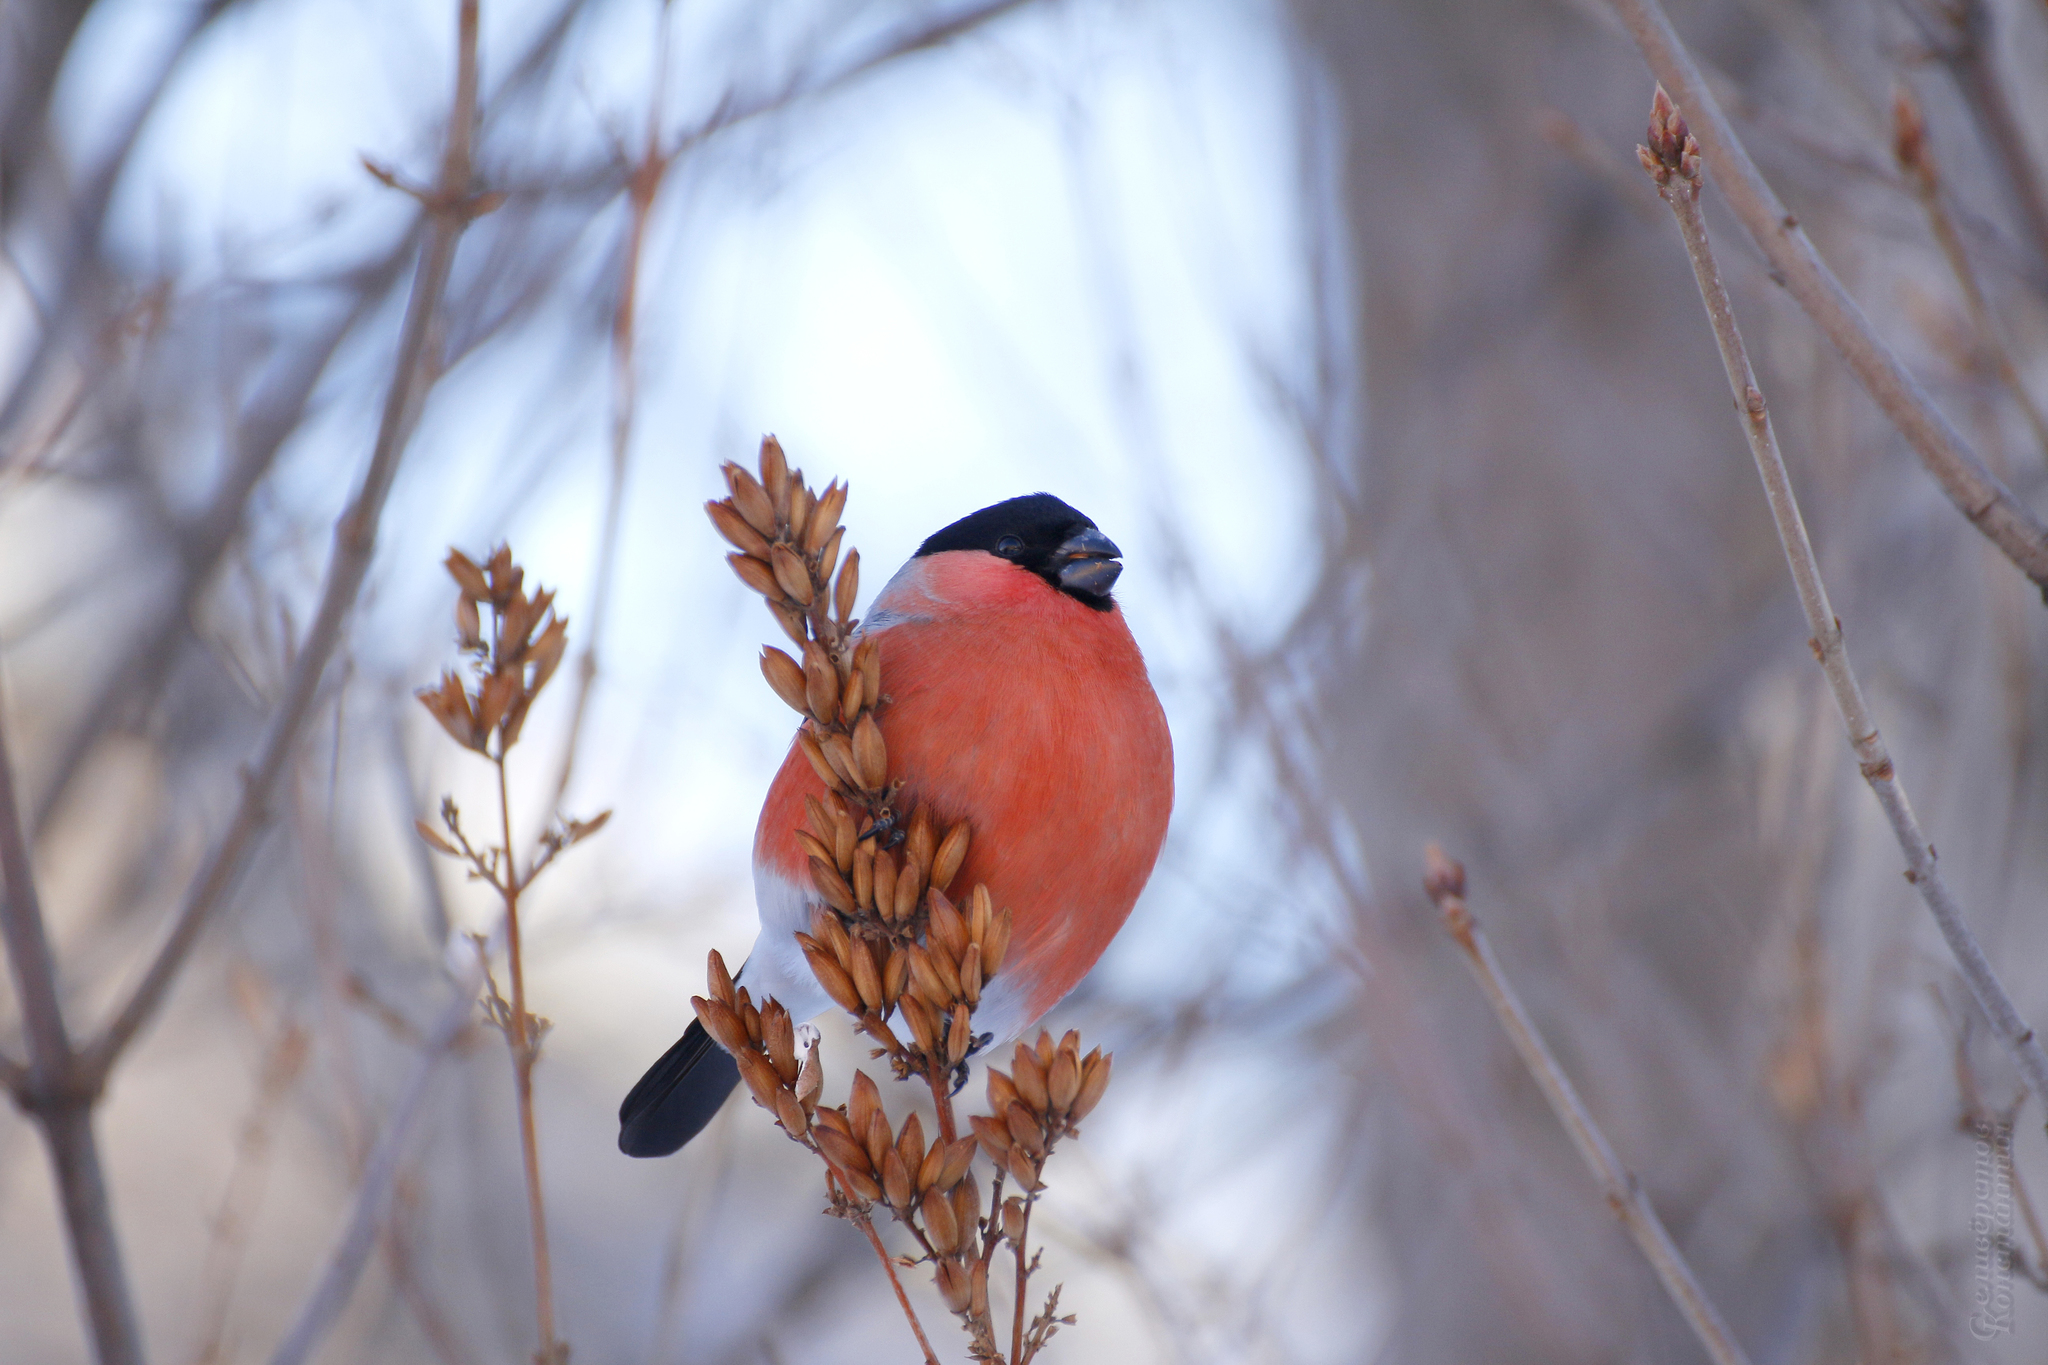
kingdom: Animalia
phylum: Chordata
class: Aves
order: Passeriformes
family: Fringillidae
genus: Pyrrhula
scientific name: Pyrrhula pyrrhula
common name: Eurasian bullfinch
